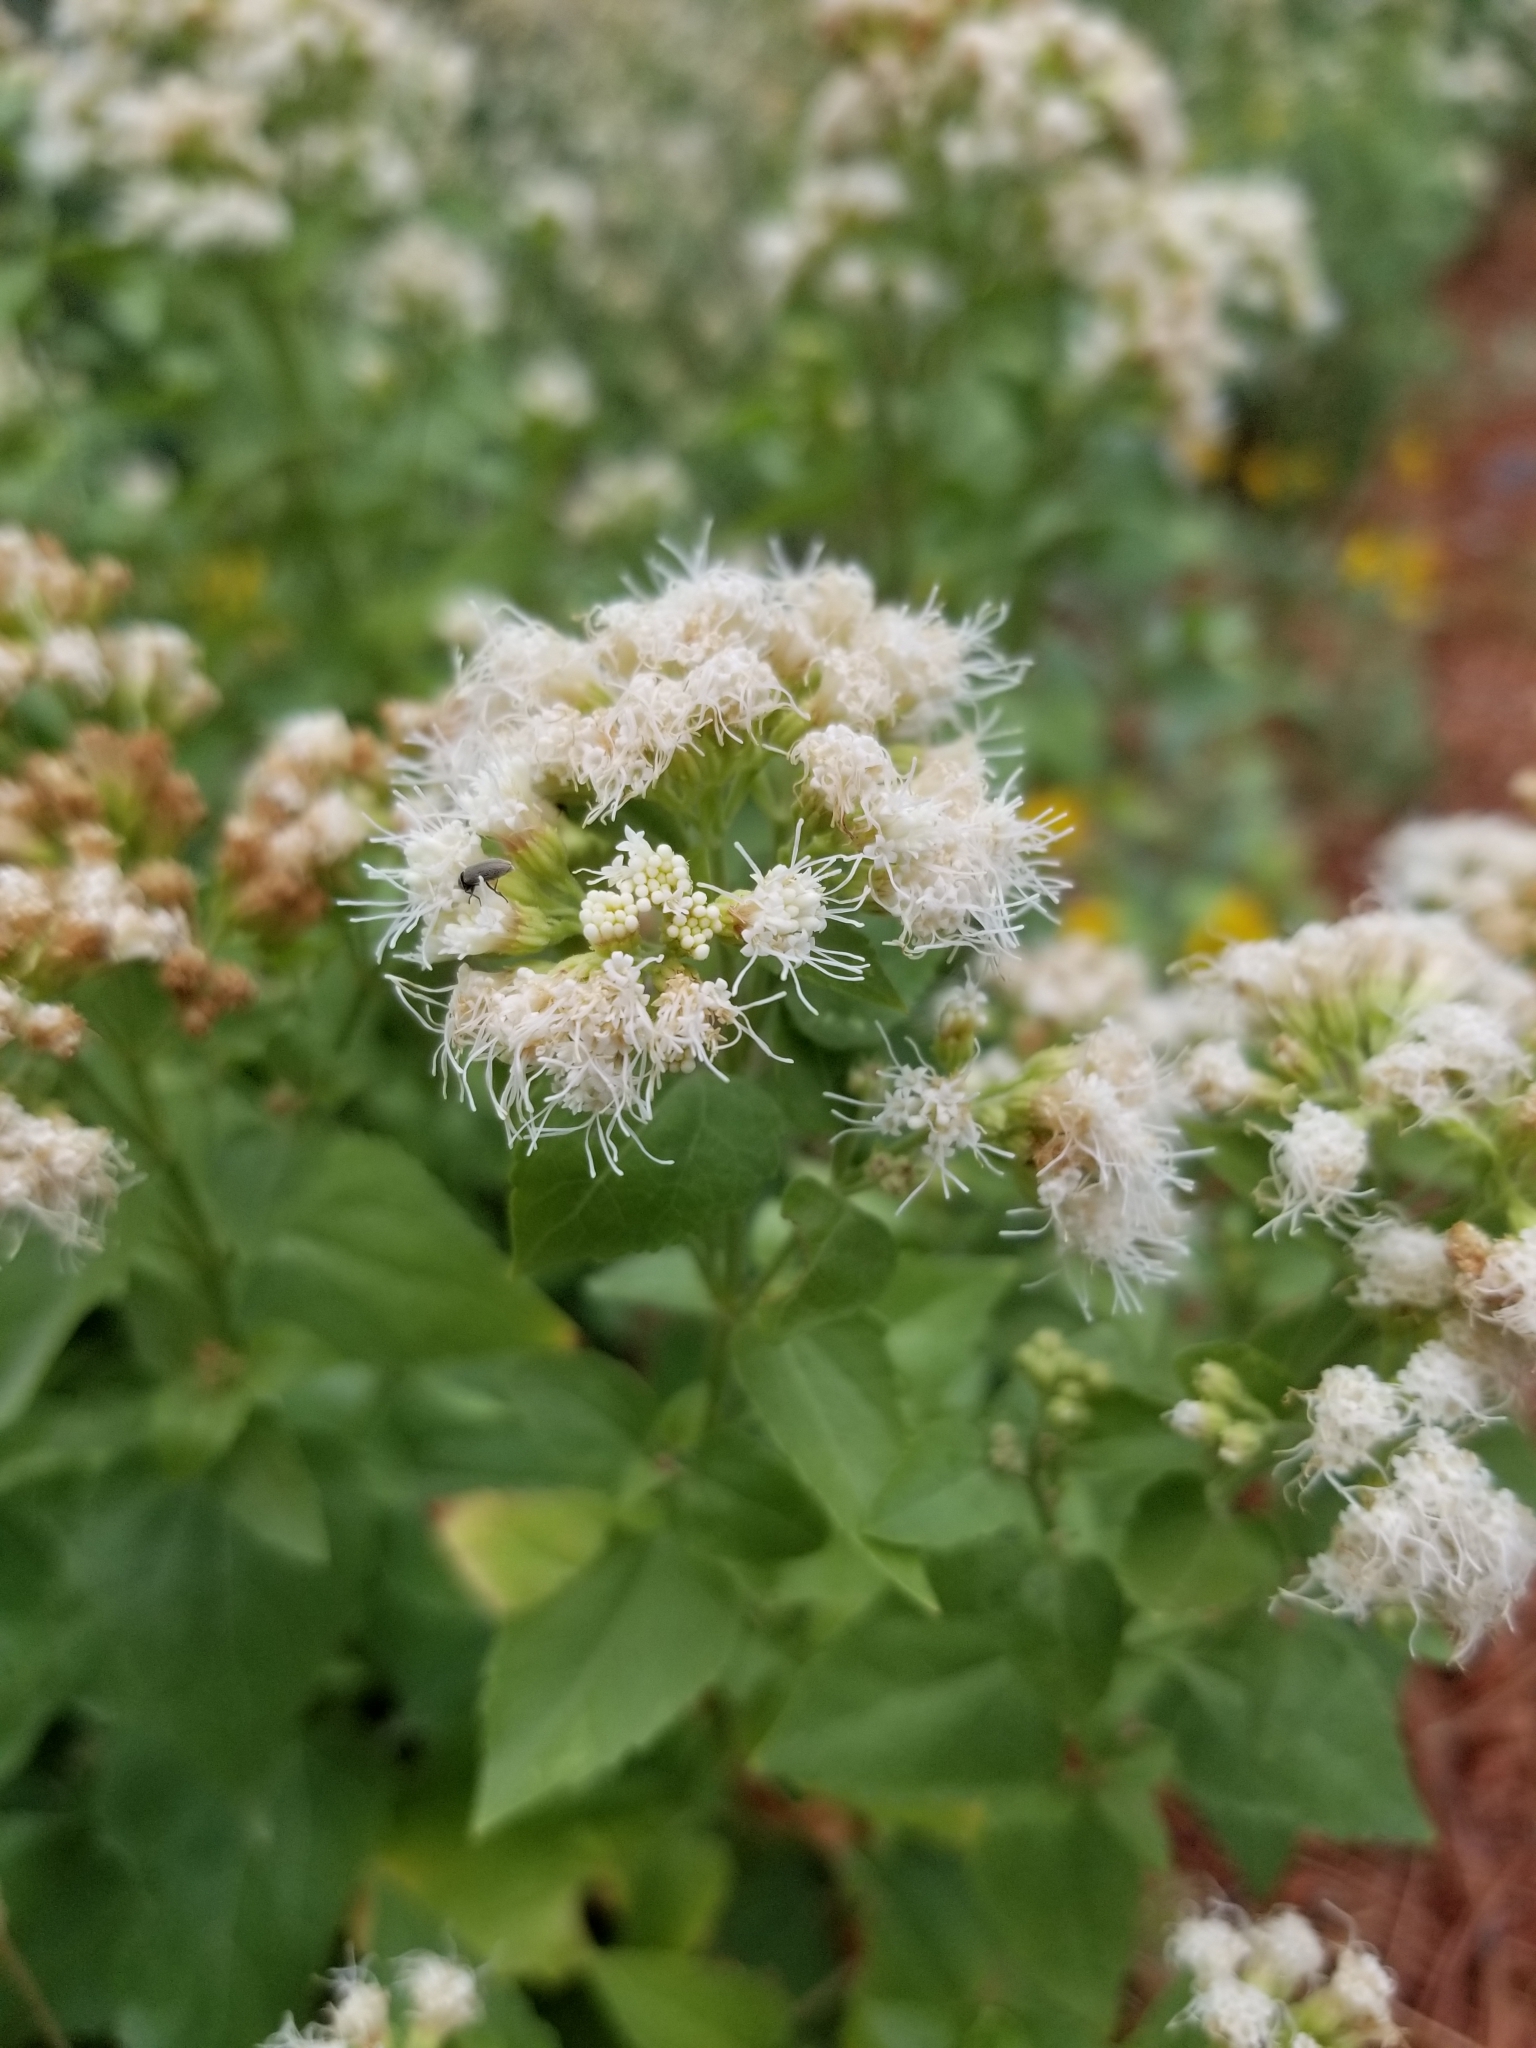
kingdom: Plantae
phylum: Tracheophyta
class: Magnoliopsida
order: Asterales
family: Asteraceae
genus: Ageratina
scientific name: Ageratina herbacea
